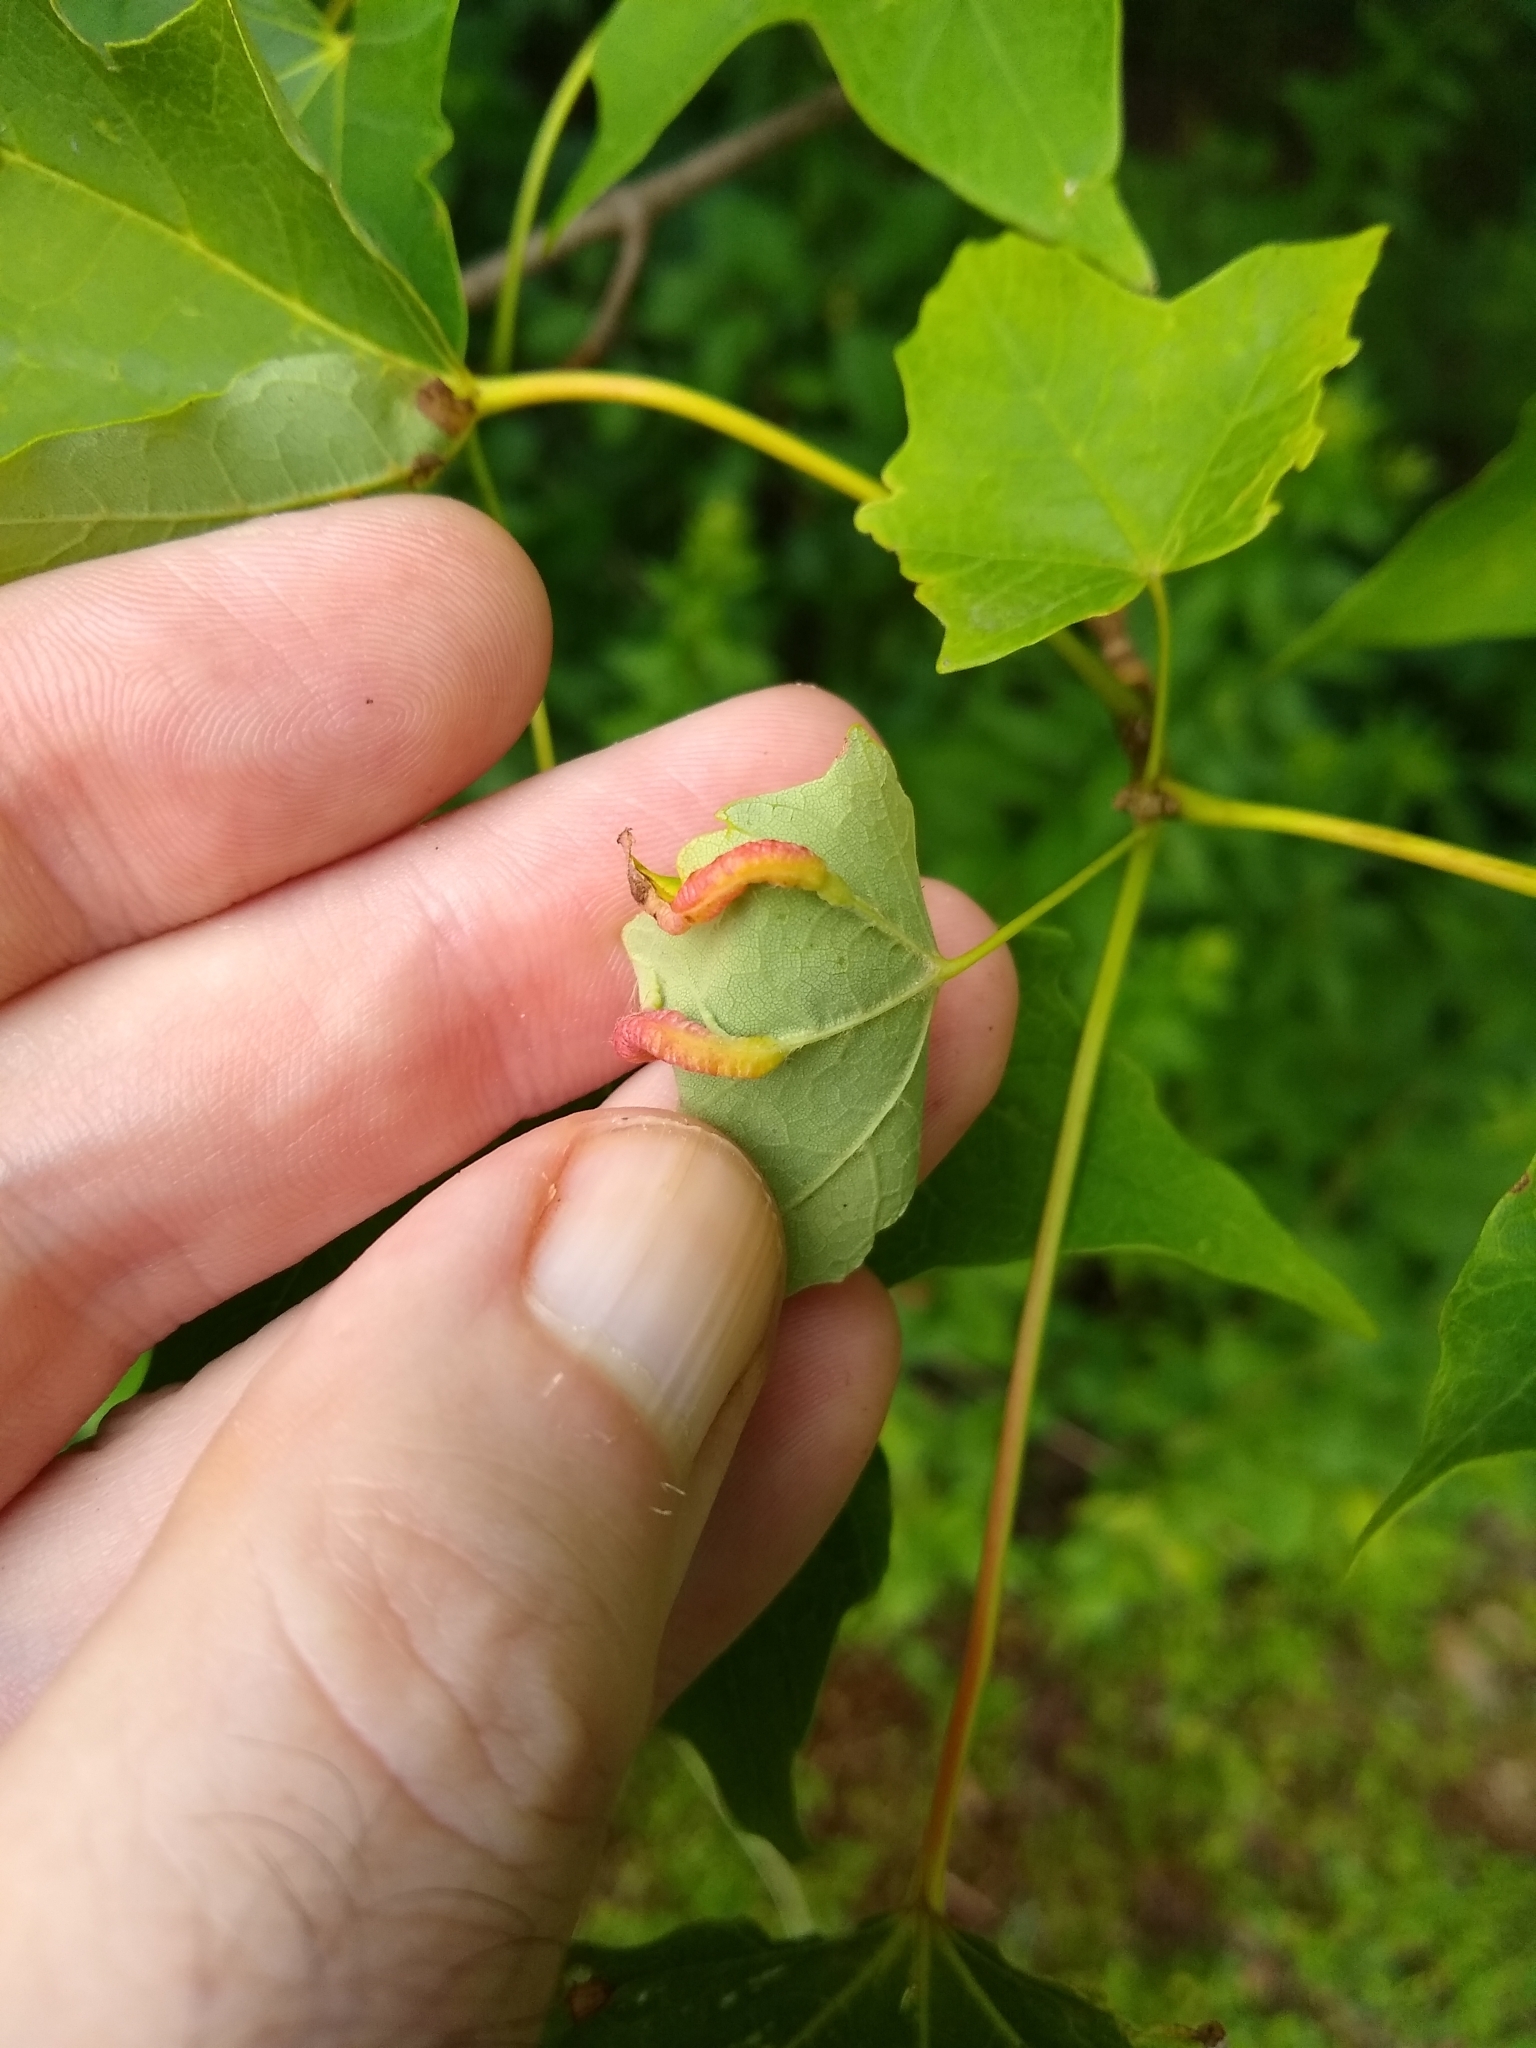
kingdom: Animalia
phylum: Arthropoda
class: Insecta
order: Diptera
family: Cecidomyiidae
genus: Dasineura
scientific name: Dasineura communis
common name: Gouty vein midge
